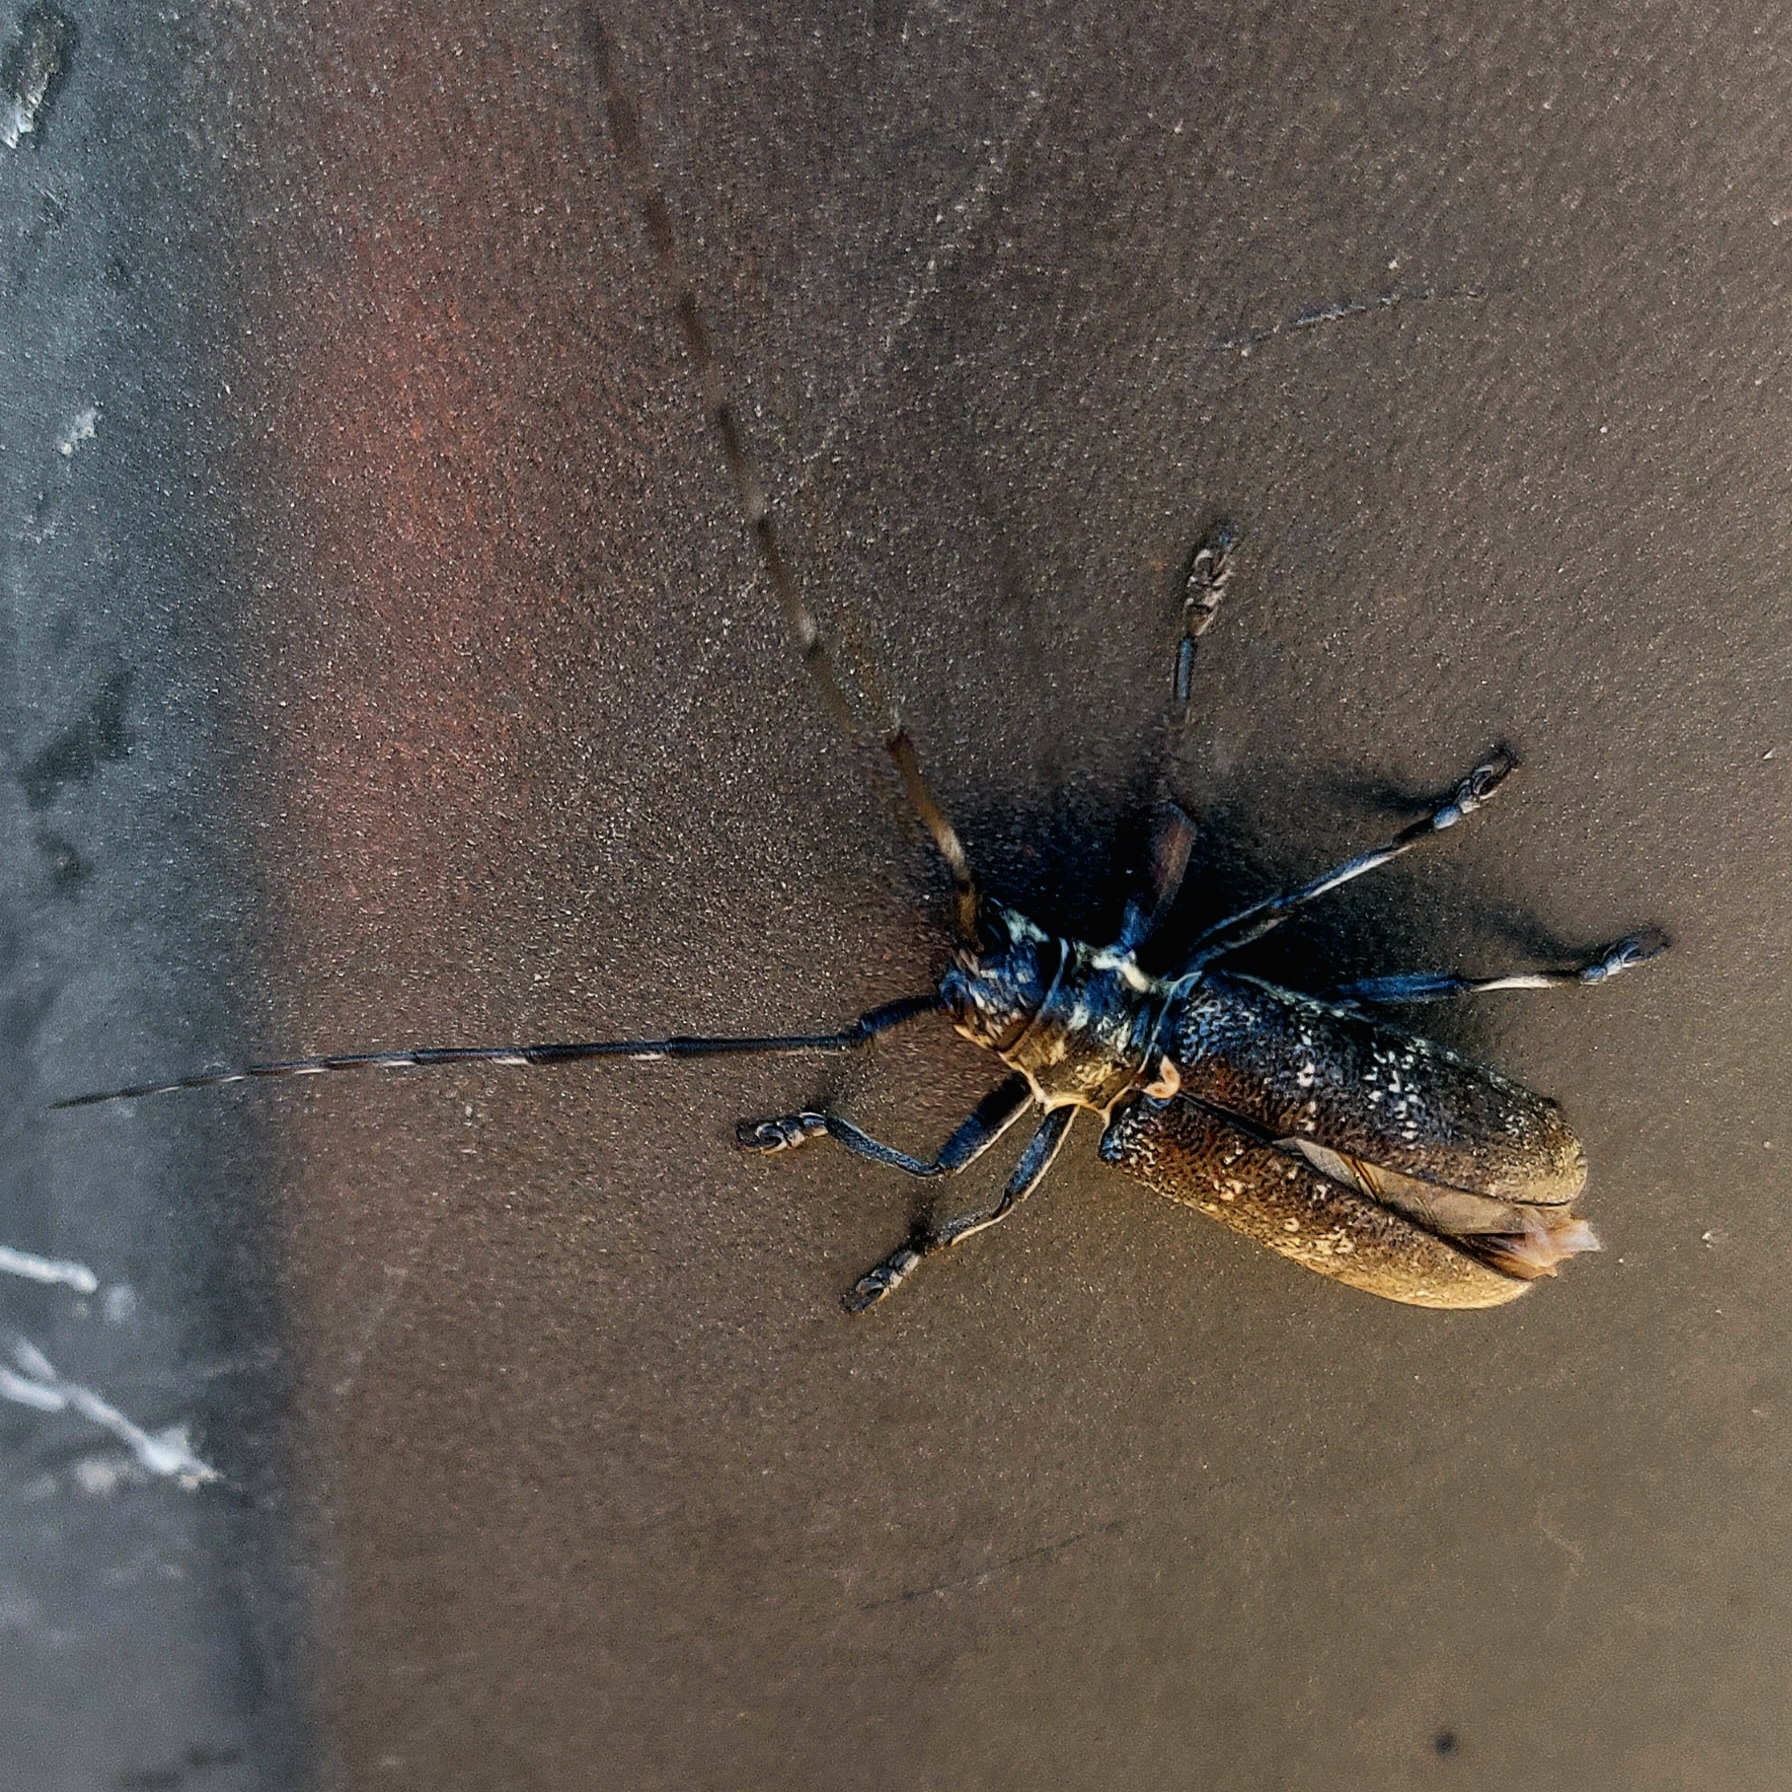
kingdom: Animalia
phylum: Arthropoda
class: Insecta
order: Coleoptera
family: Cerambycidae
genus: Monochamus
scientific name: Monochamus galloprovincialis
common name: Pine sawyer
